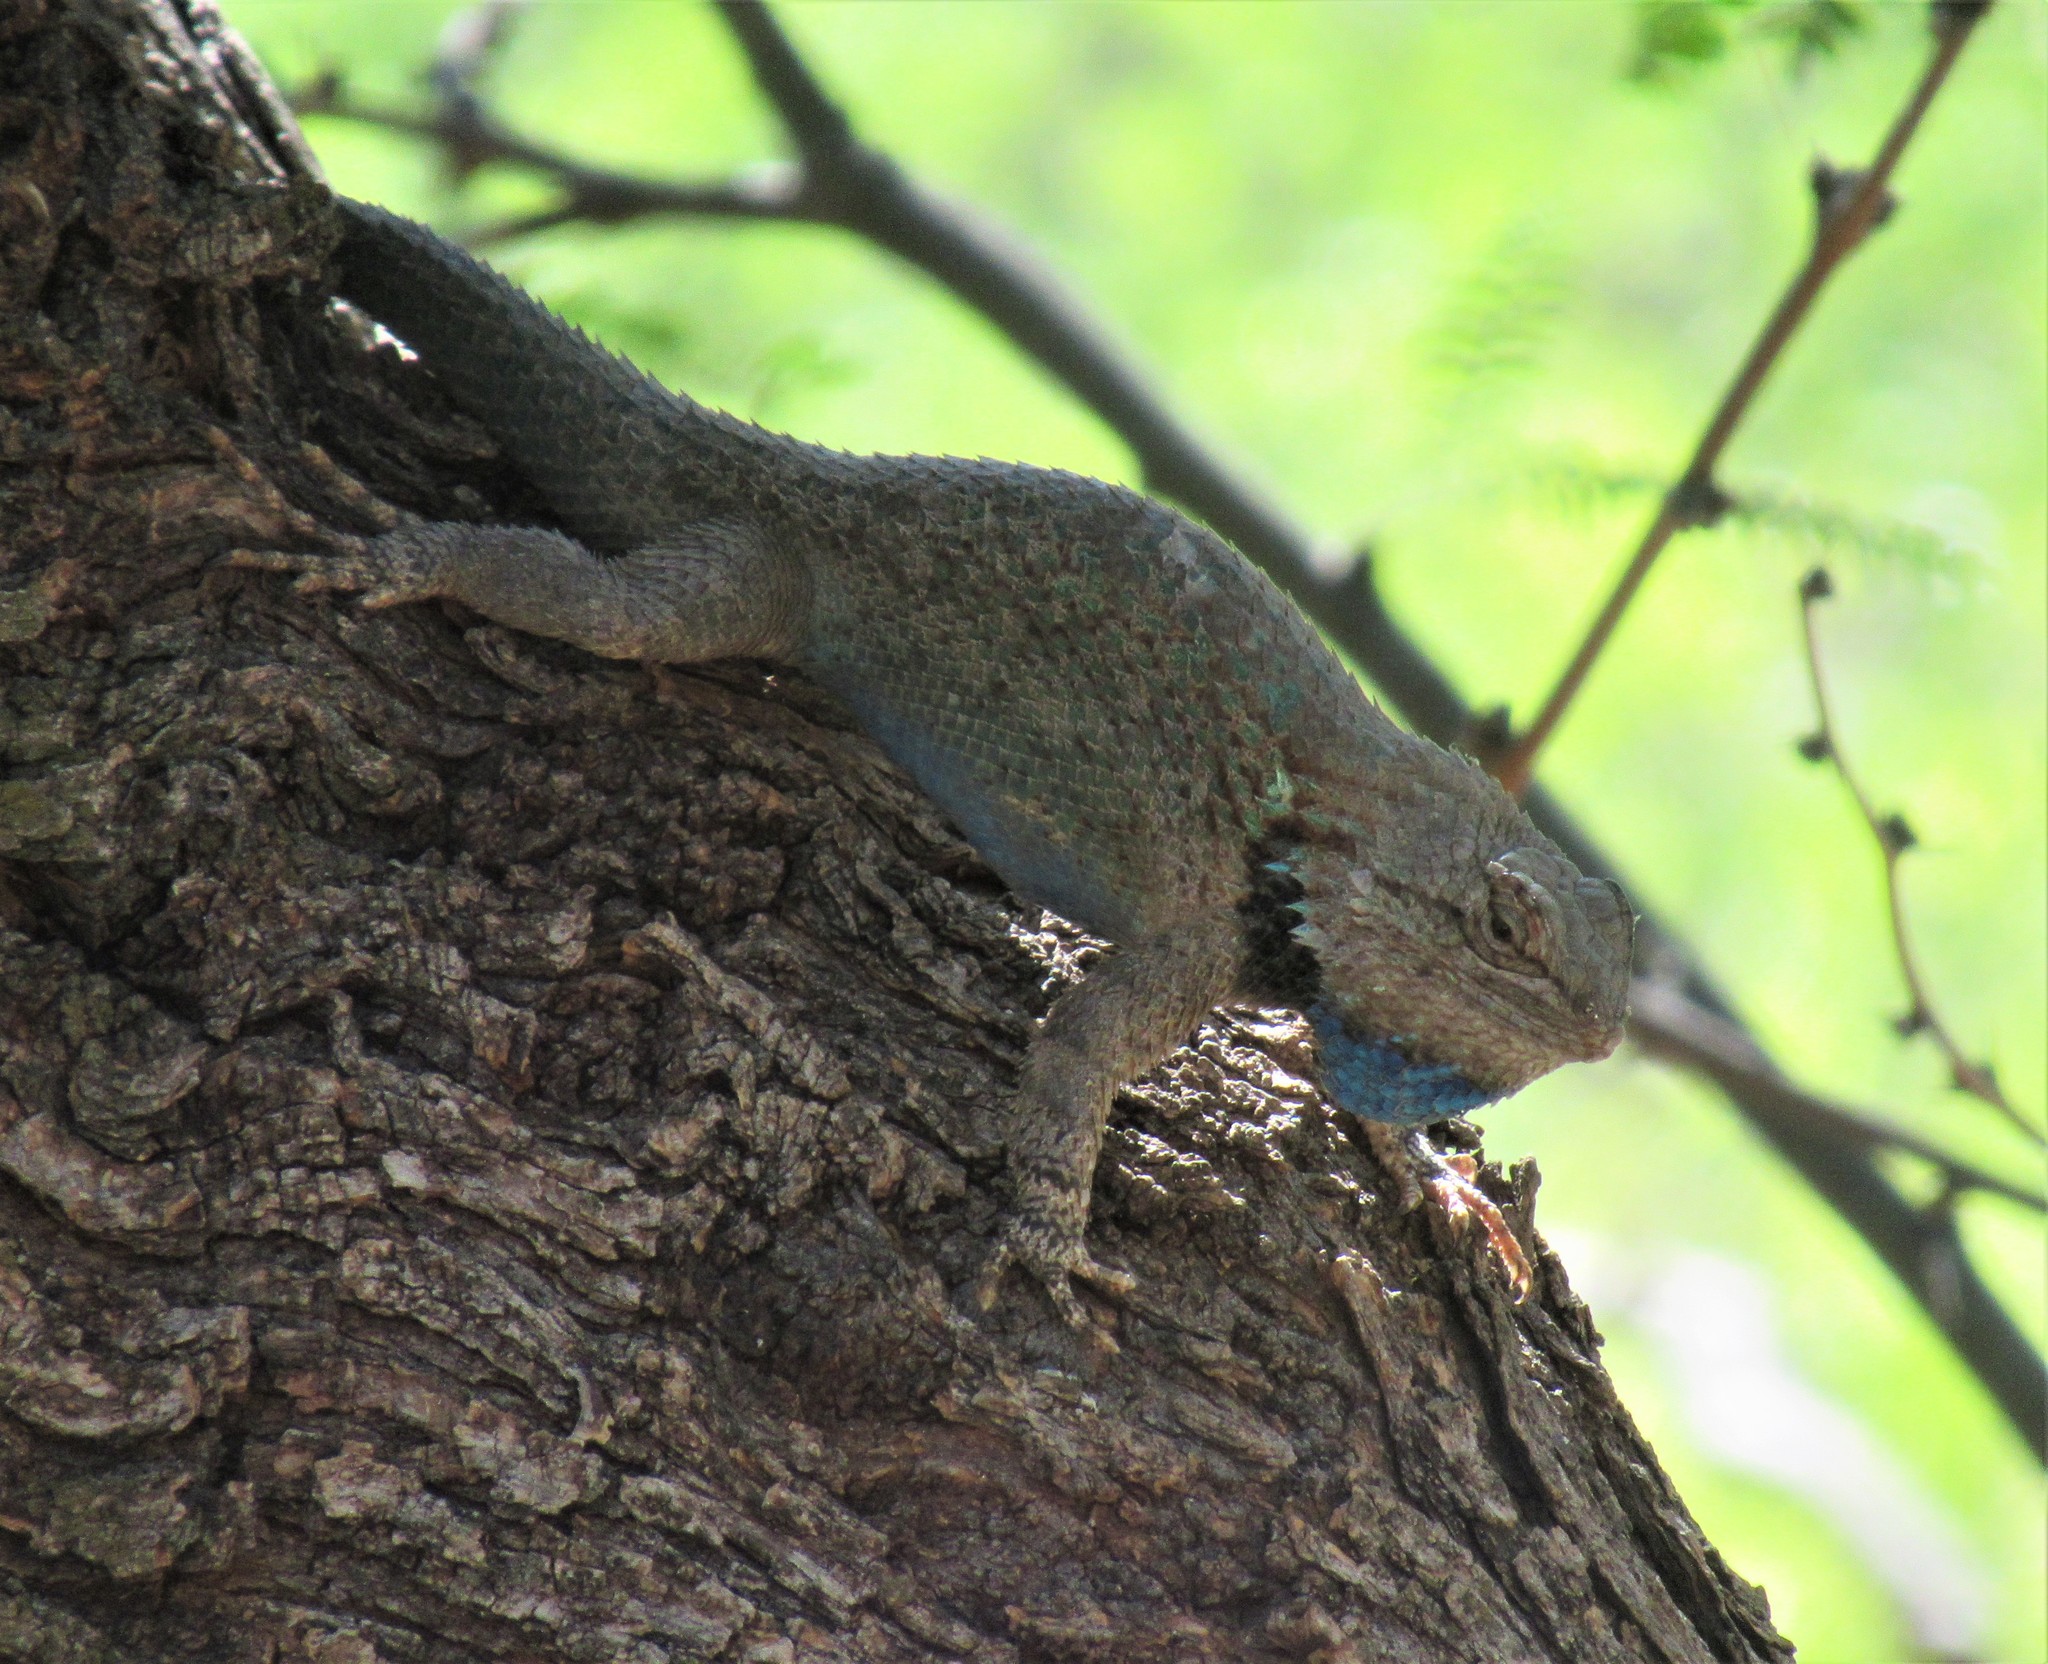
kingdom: Animalia
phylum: Chordata
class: Squamata
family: Phrynosomatidae
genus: Sceloporus
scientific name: Sceloporus clarkii
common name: Clark's spiny lizard
